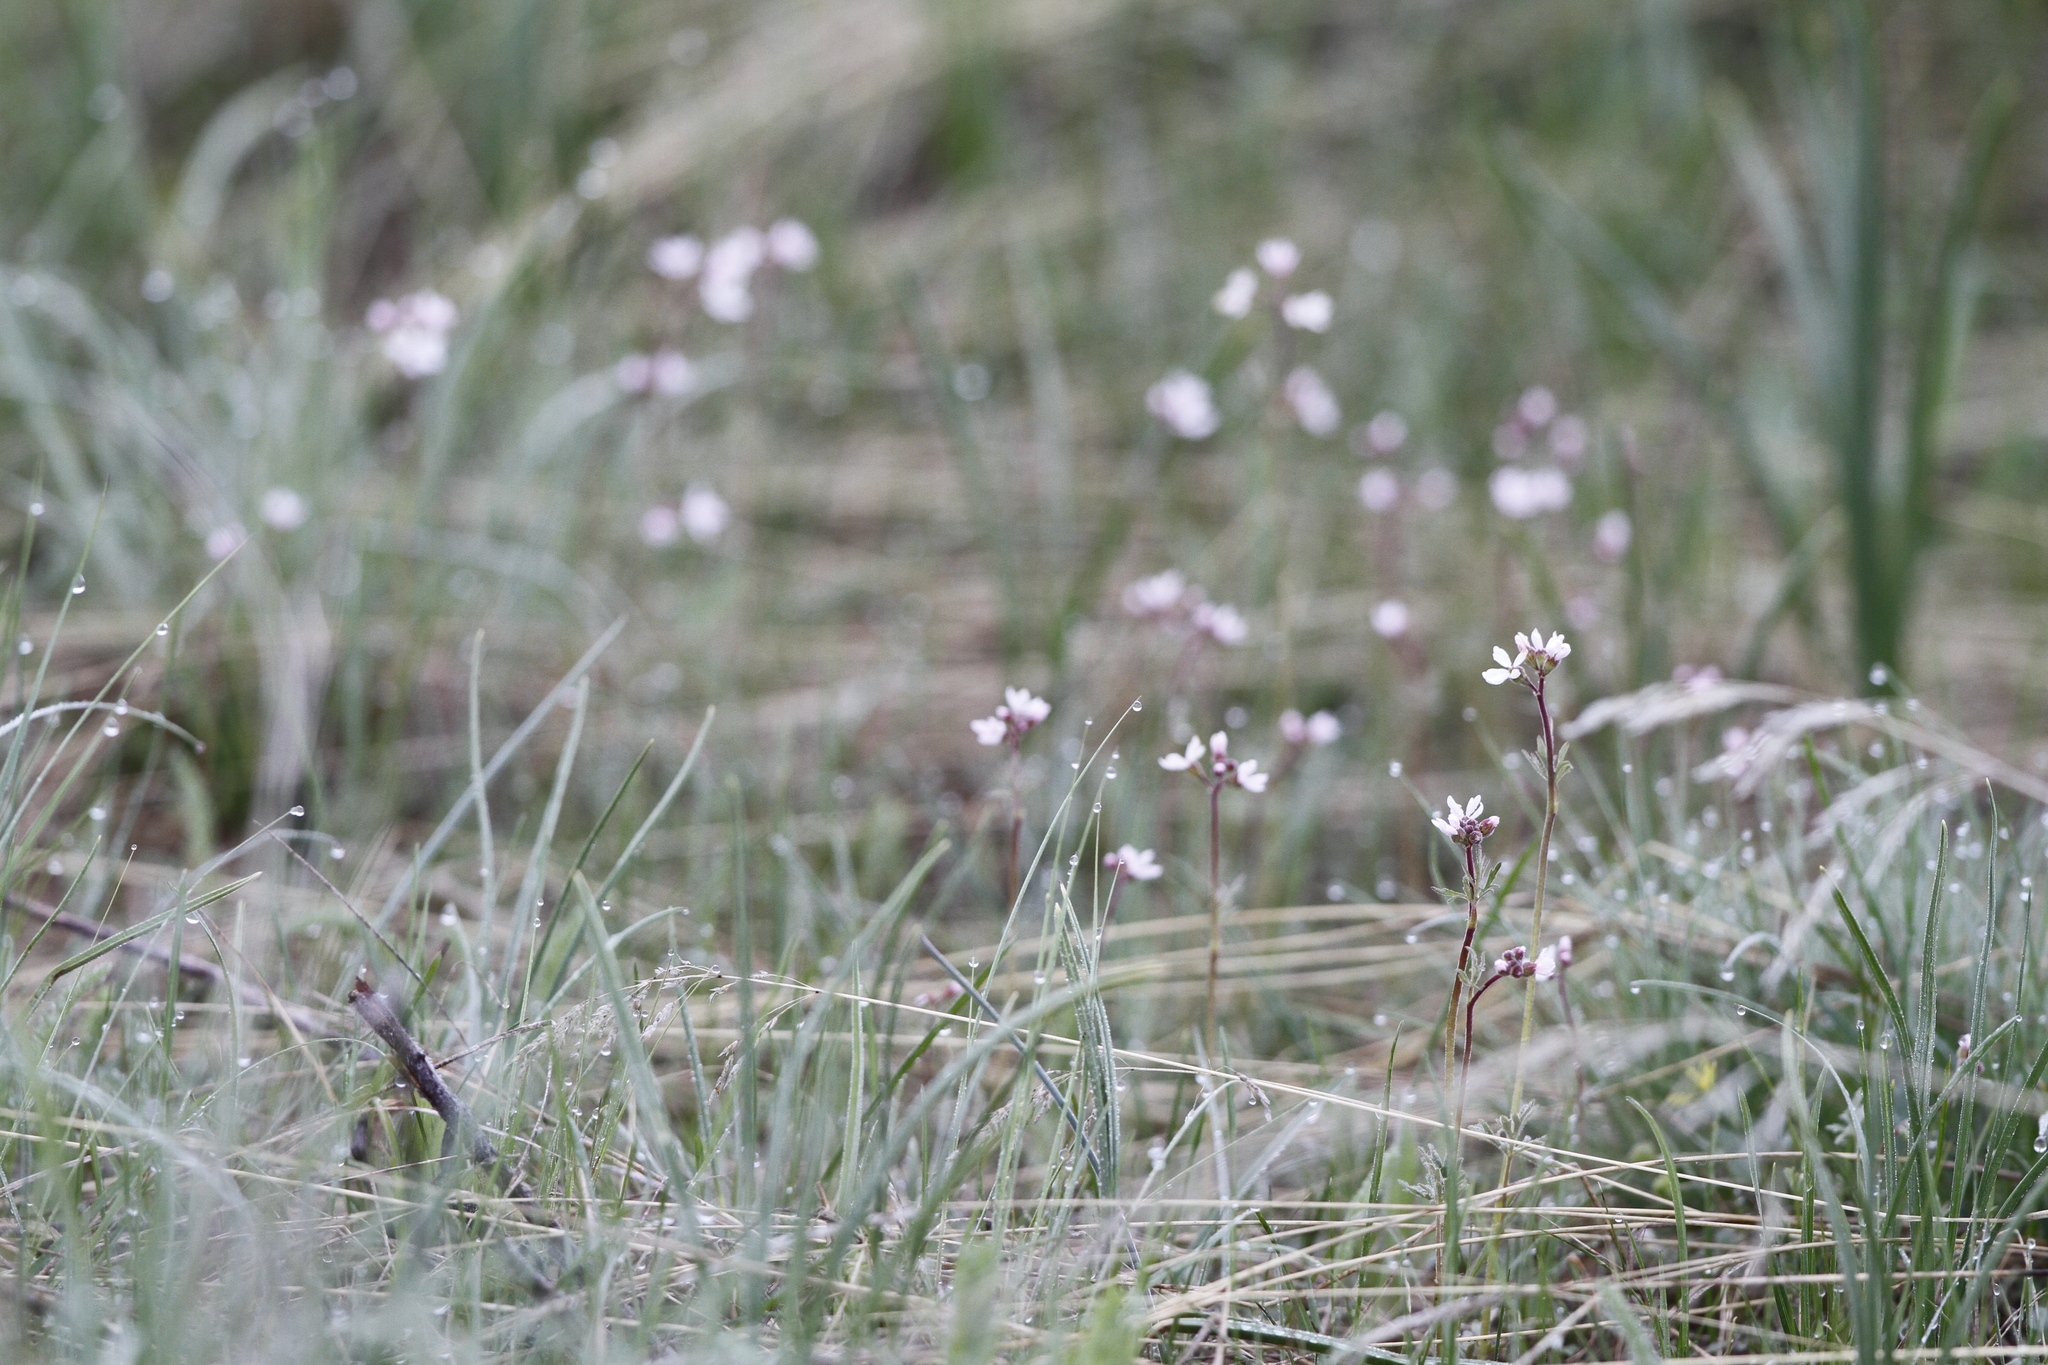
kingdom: Plantae
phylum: Tracheophyta
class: Magnoliopsida
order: Saxifragales
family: Saxifragaceae
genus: Lithophragma
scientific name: Lithophragma parviflorum
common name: Small-flowered fringe-cup
